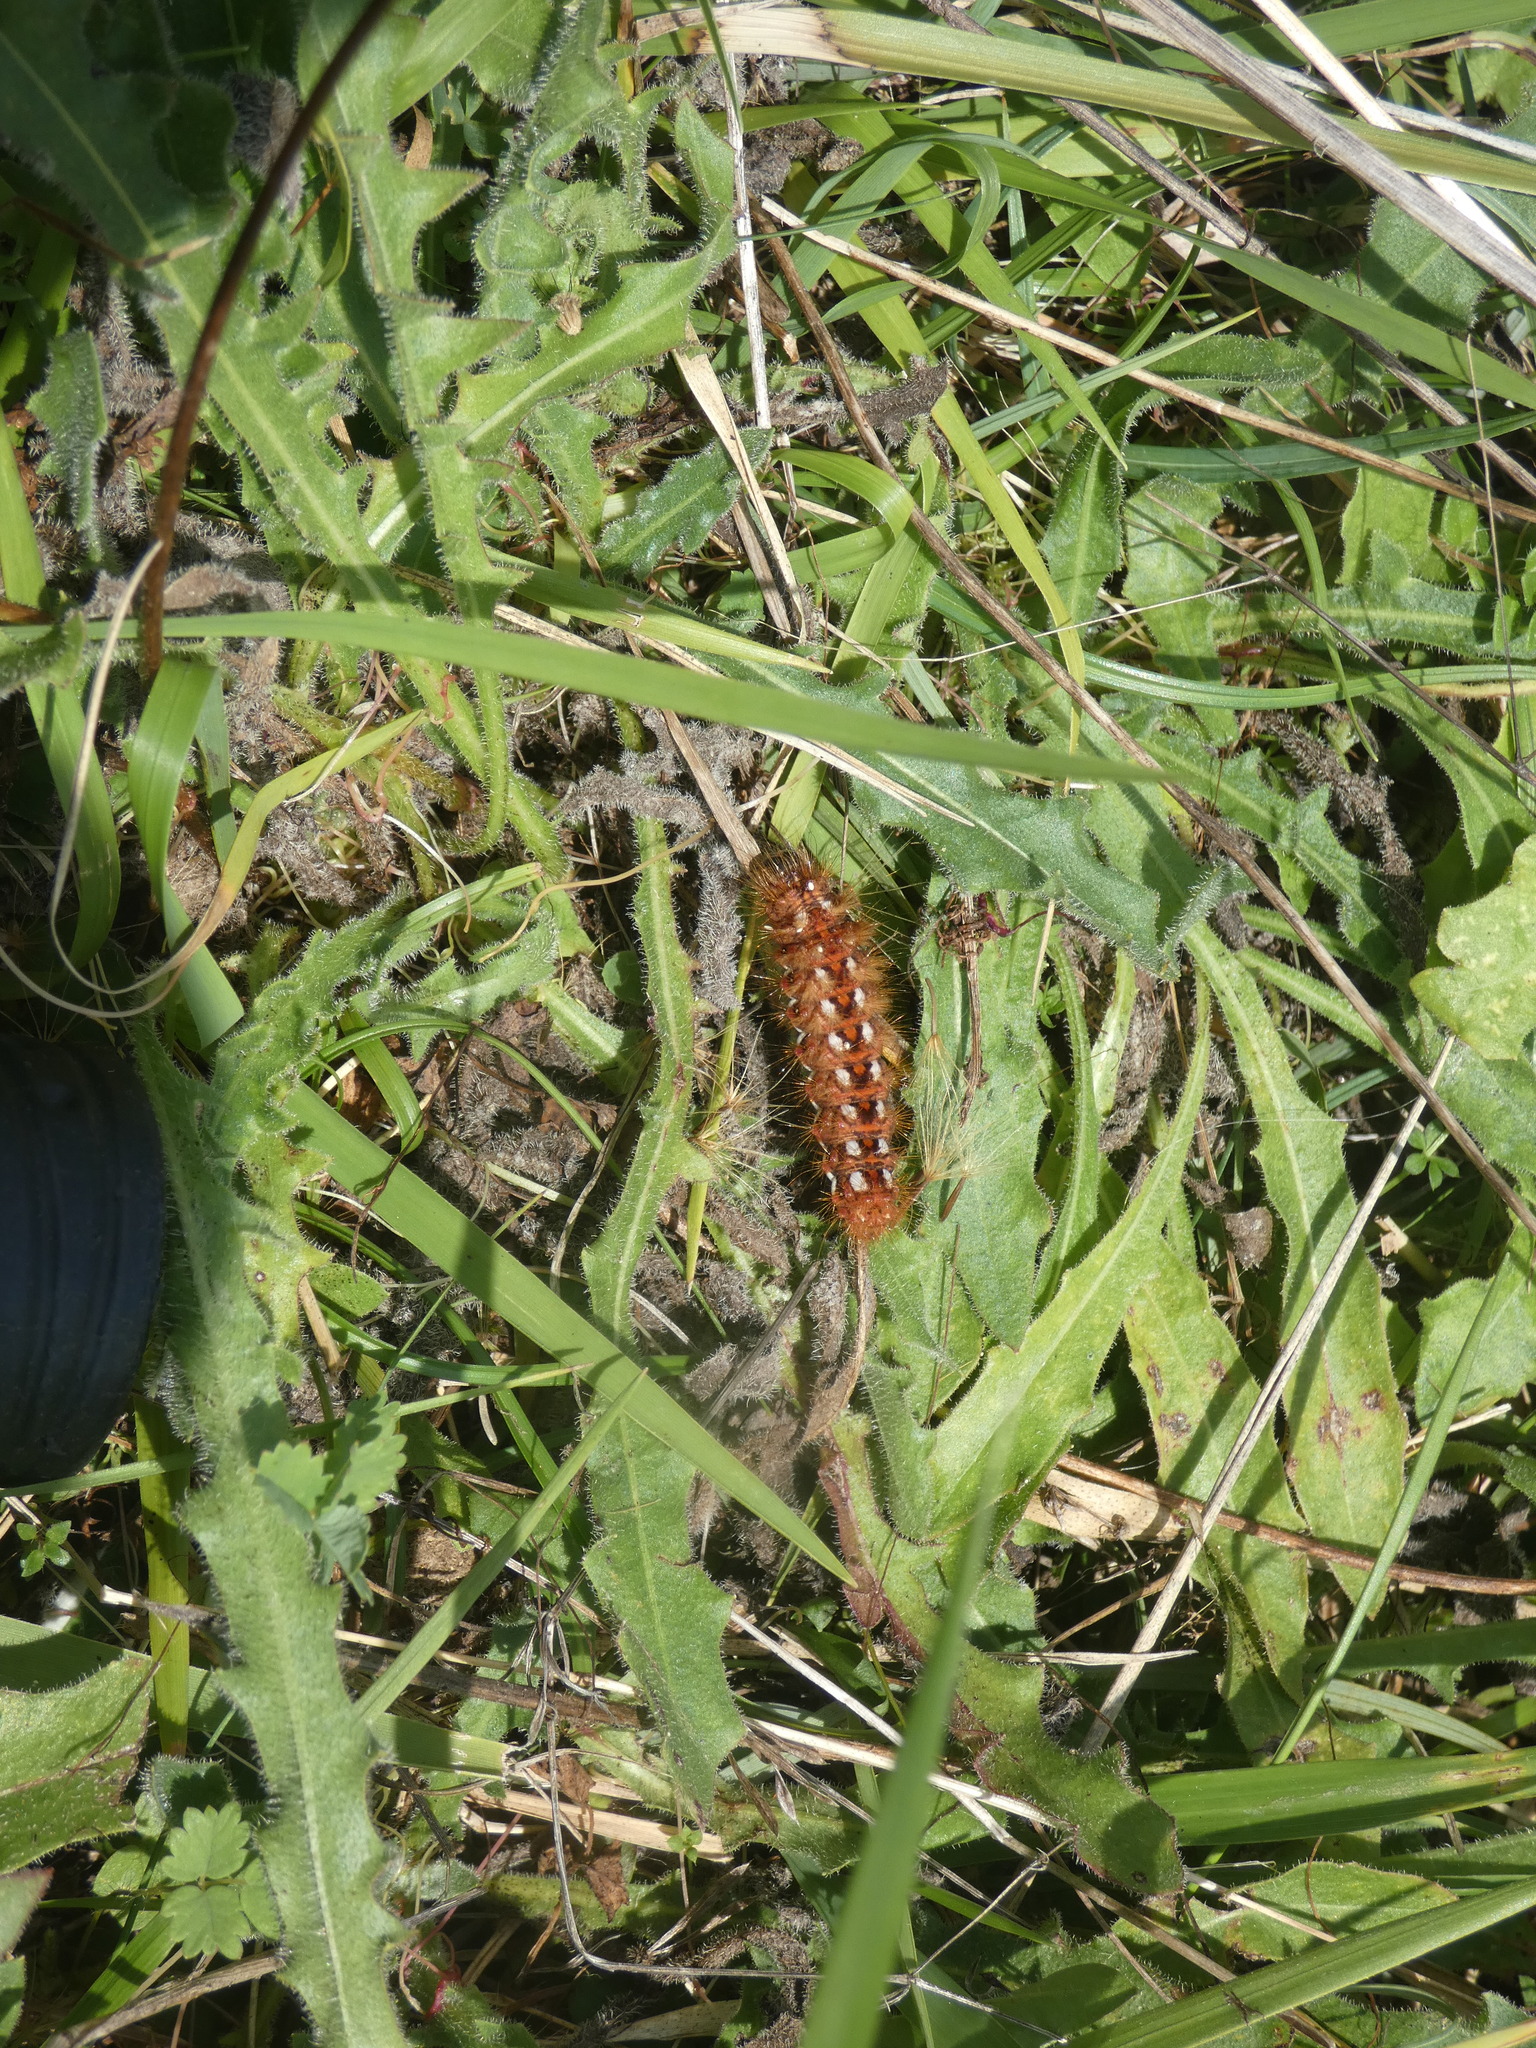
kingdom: Animalia
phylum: Arthropoda
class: Insecta
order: Lepidoptera
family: Noctuidae
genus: Acronicta
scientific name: Acronicta rumicis
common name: Knot grass
